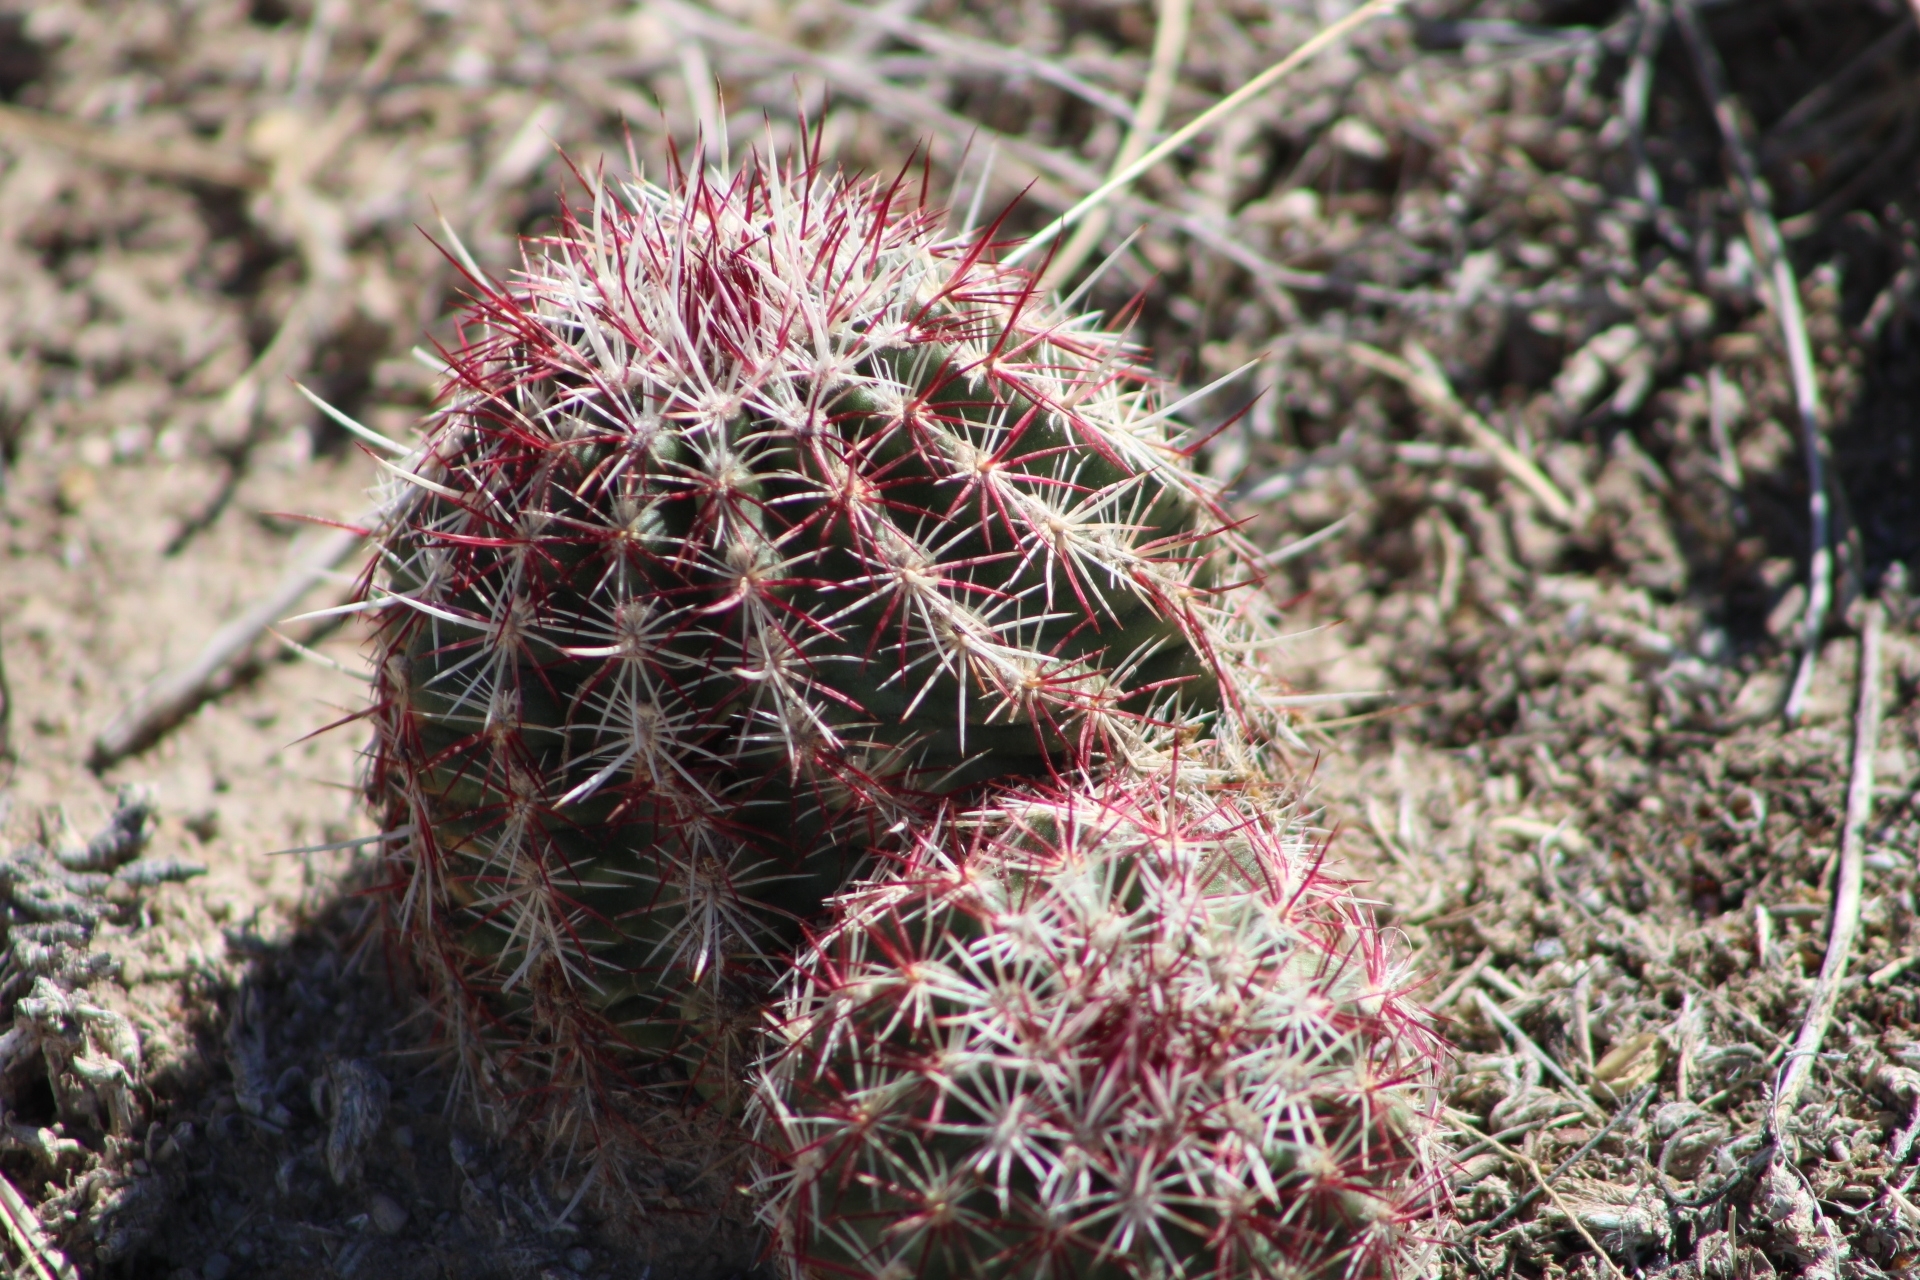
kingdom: Plantae
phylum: Tracheophyta
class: Magnoliopsida
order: Caryophyllales
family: Cactaceae
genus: Echinocereus
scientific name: Echinocereus viridiflorus
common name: Nylon hedgehog cactus
